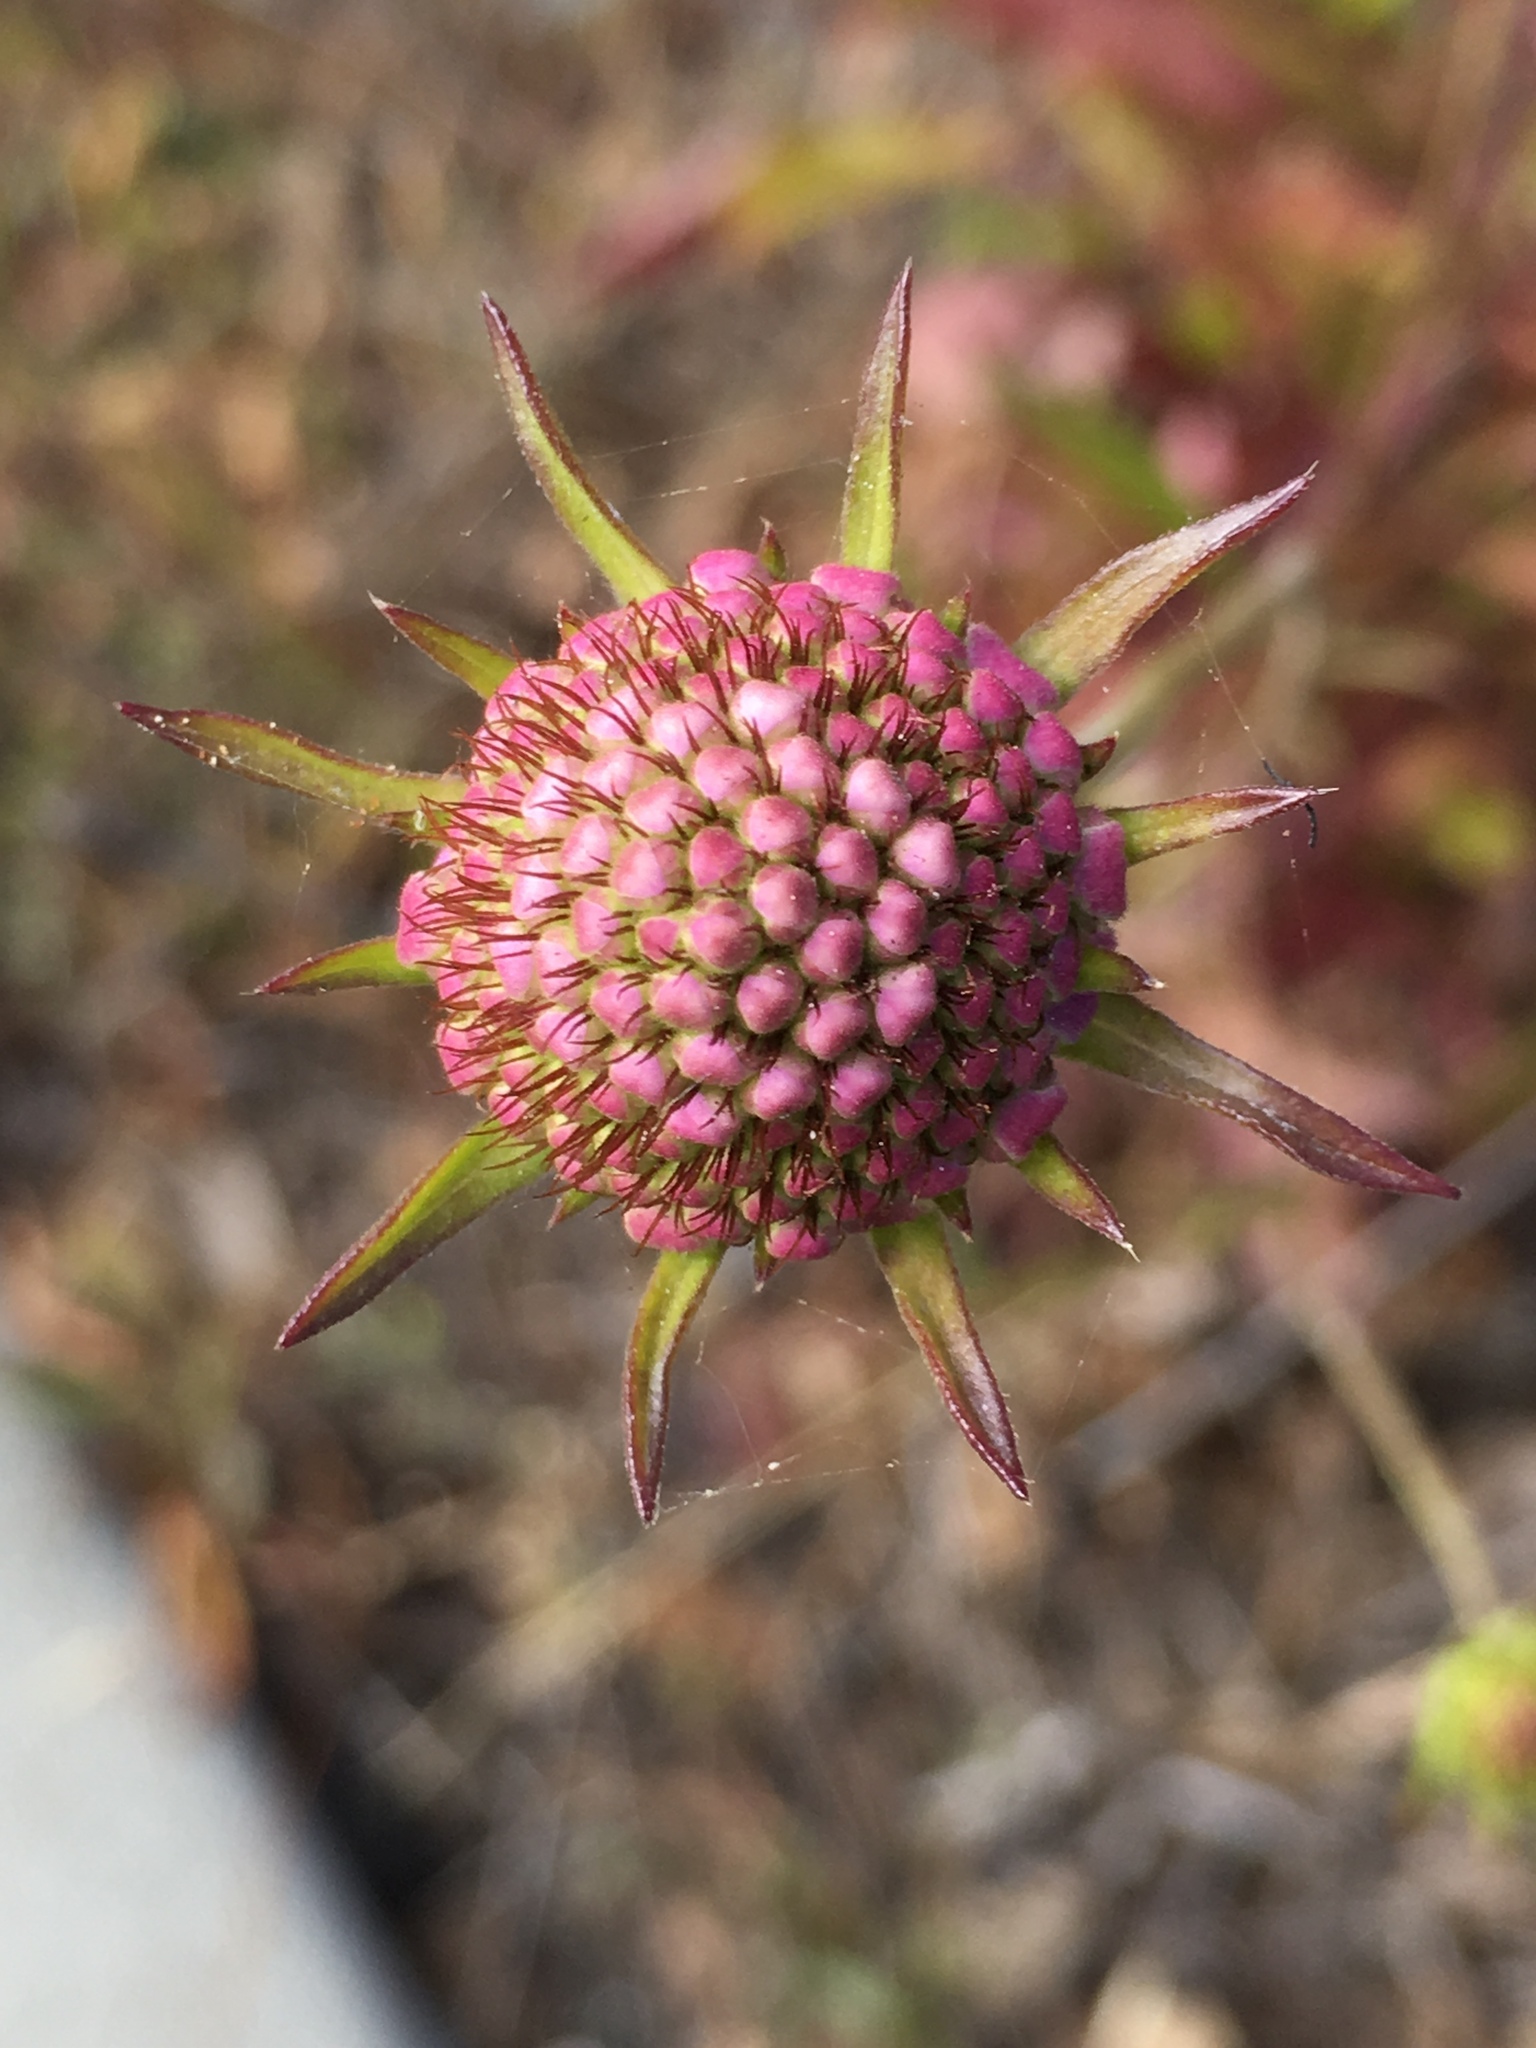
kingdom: Plantae
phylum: Tracheophyta
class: Magnoliopsida
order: Dipsacales
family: Caprifoliaceae
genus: Sixalix
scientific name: Sixalix atropurpurea
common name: Sweet scabious
